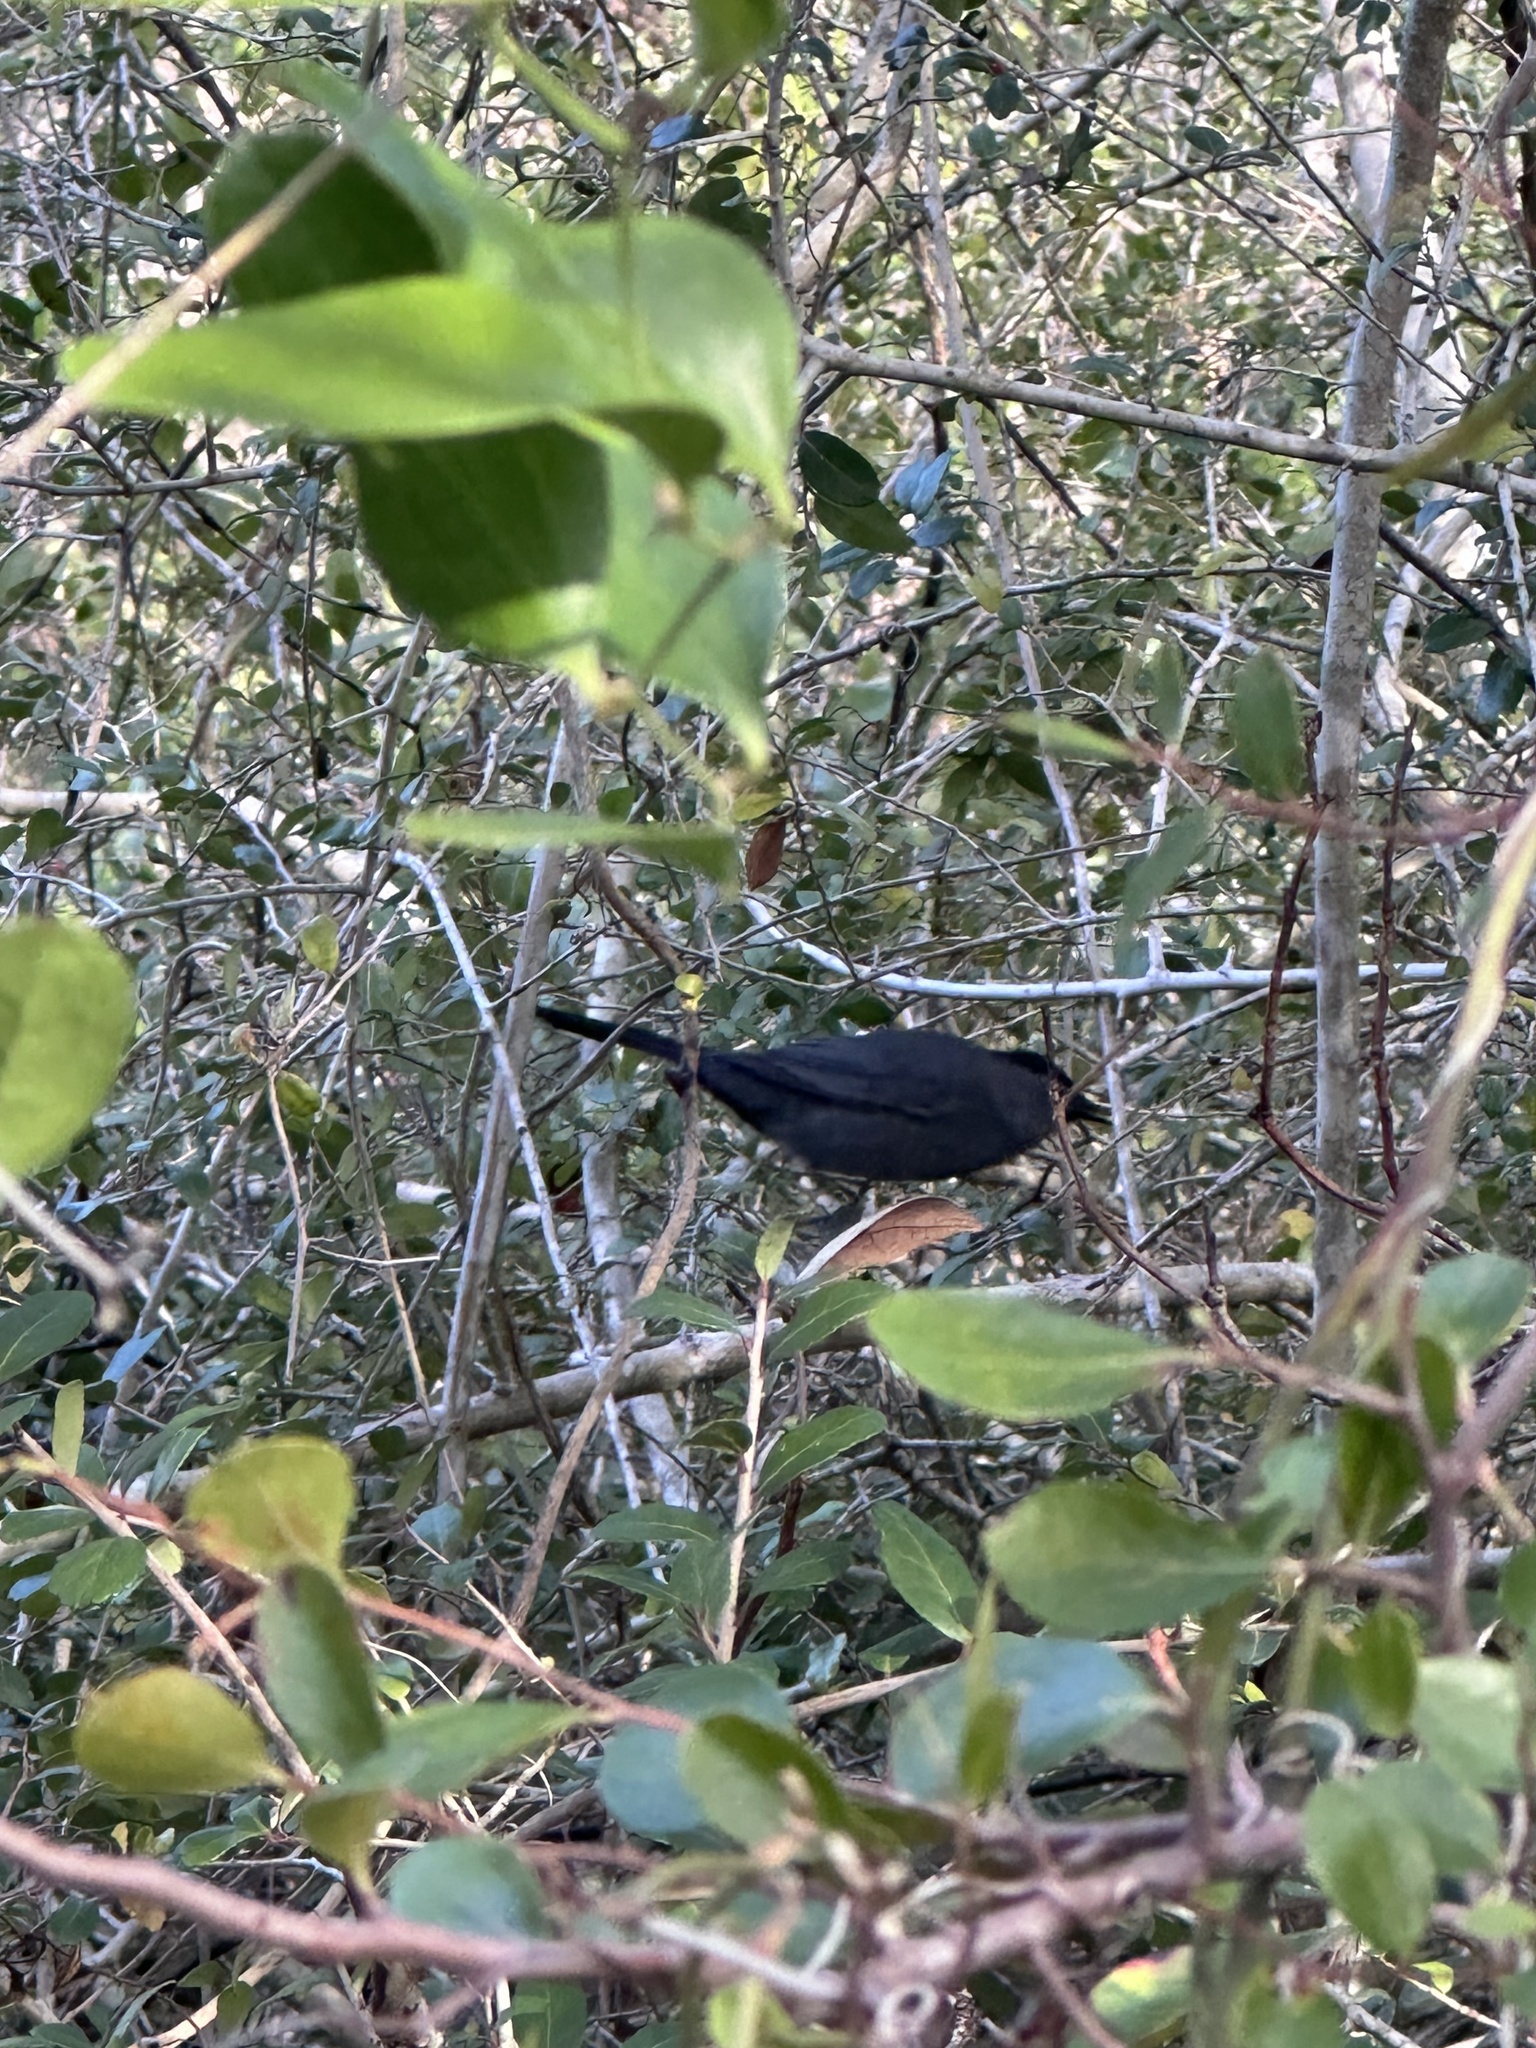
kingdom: Animalia
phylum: Chordata
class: Aves
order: Passeriformes
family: Mimidae
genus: Dumetella
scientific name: Dumetella carolinensis
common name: Gray catbird
